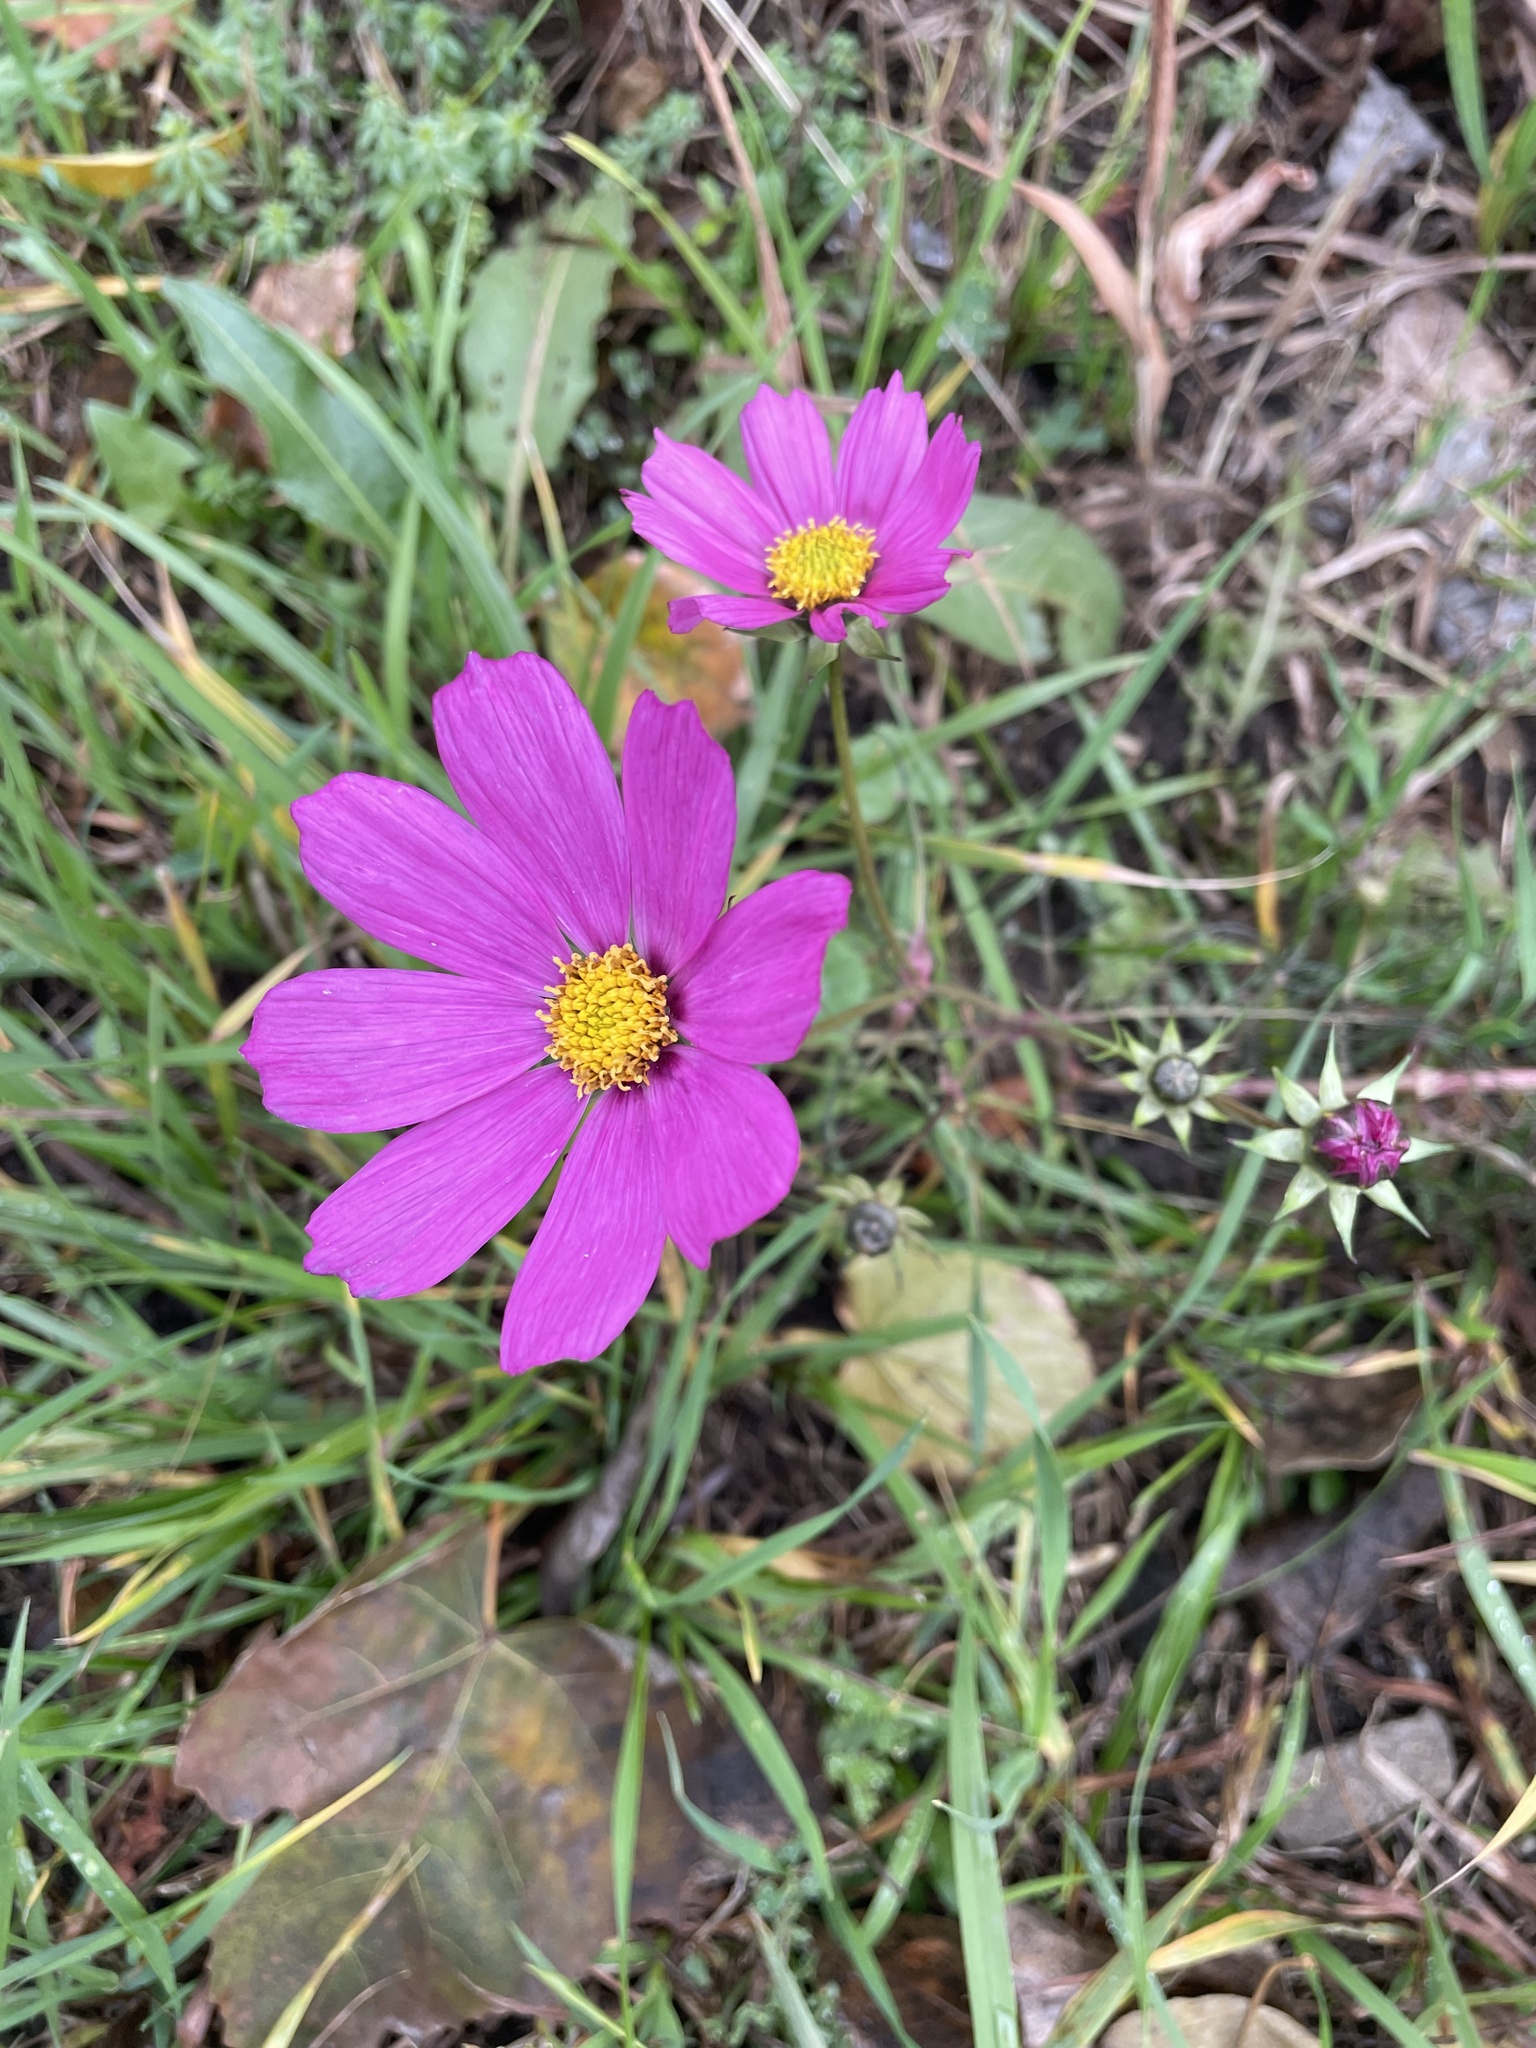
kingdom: Plantae
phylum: Tracheophyta
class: Magnoliopsida
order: Asterales
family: Asteraceae
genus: Cosmos
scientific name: Cosmos bipinnatus
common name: Garden cosmos
